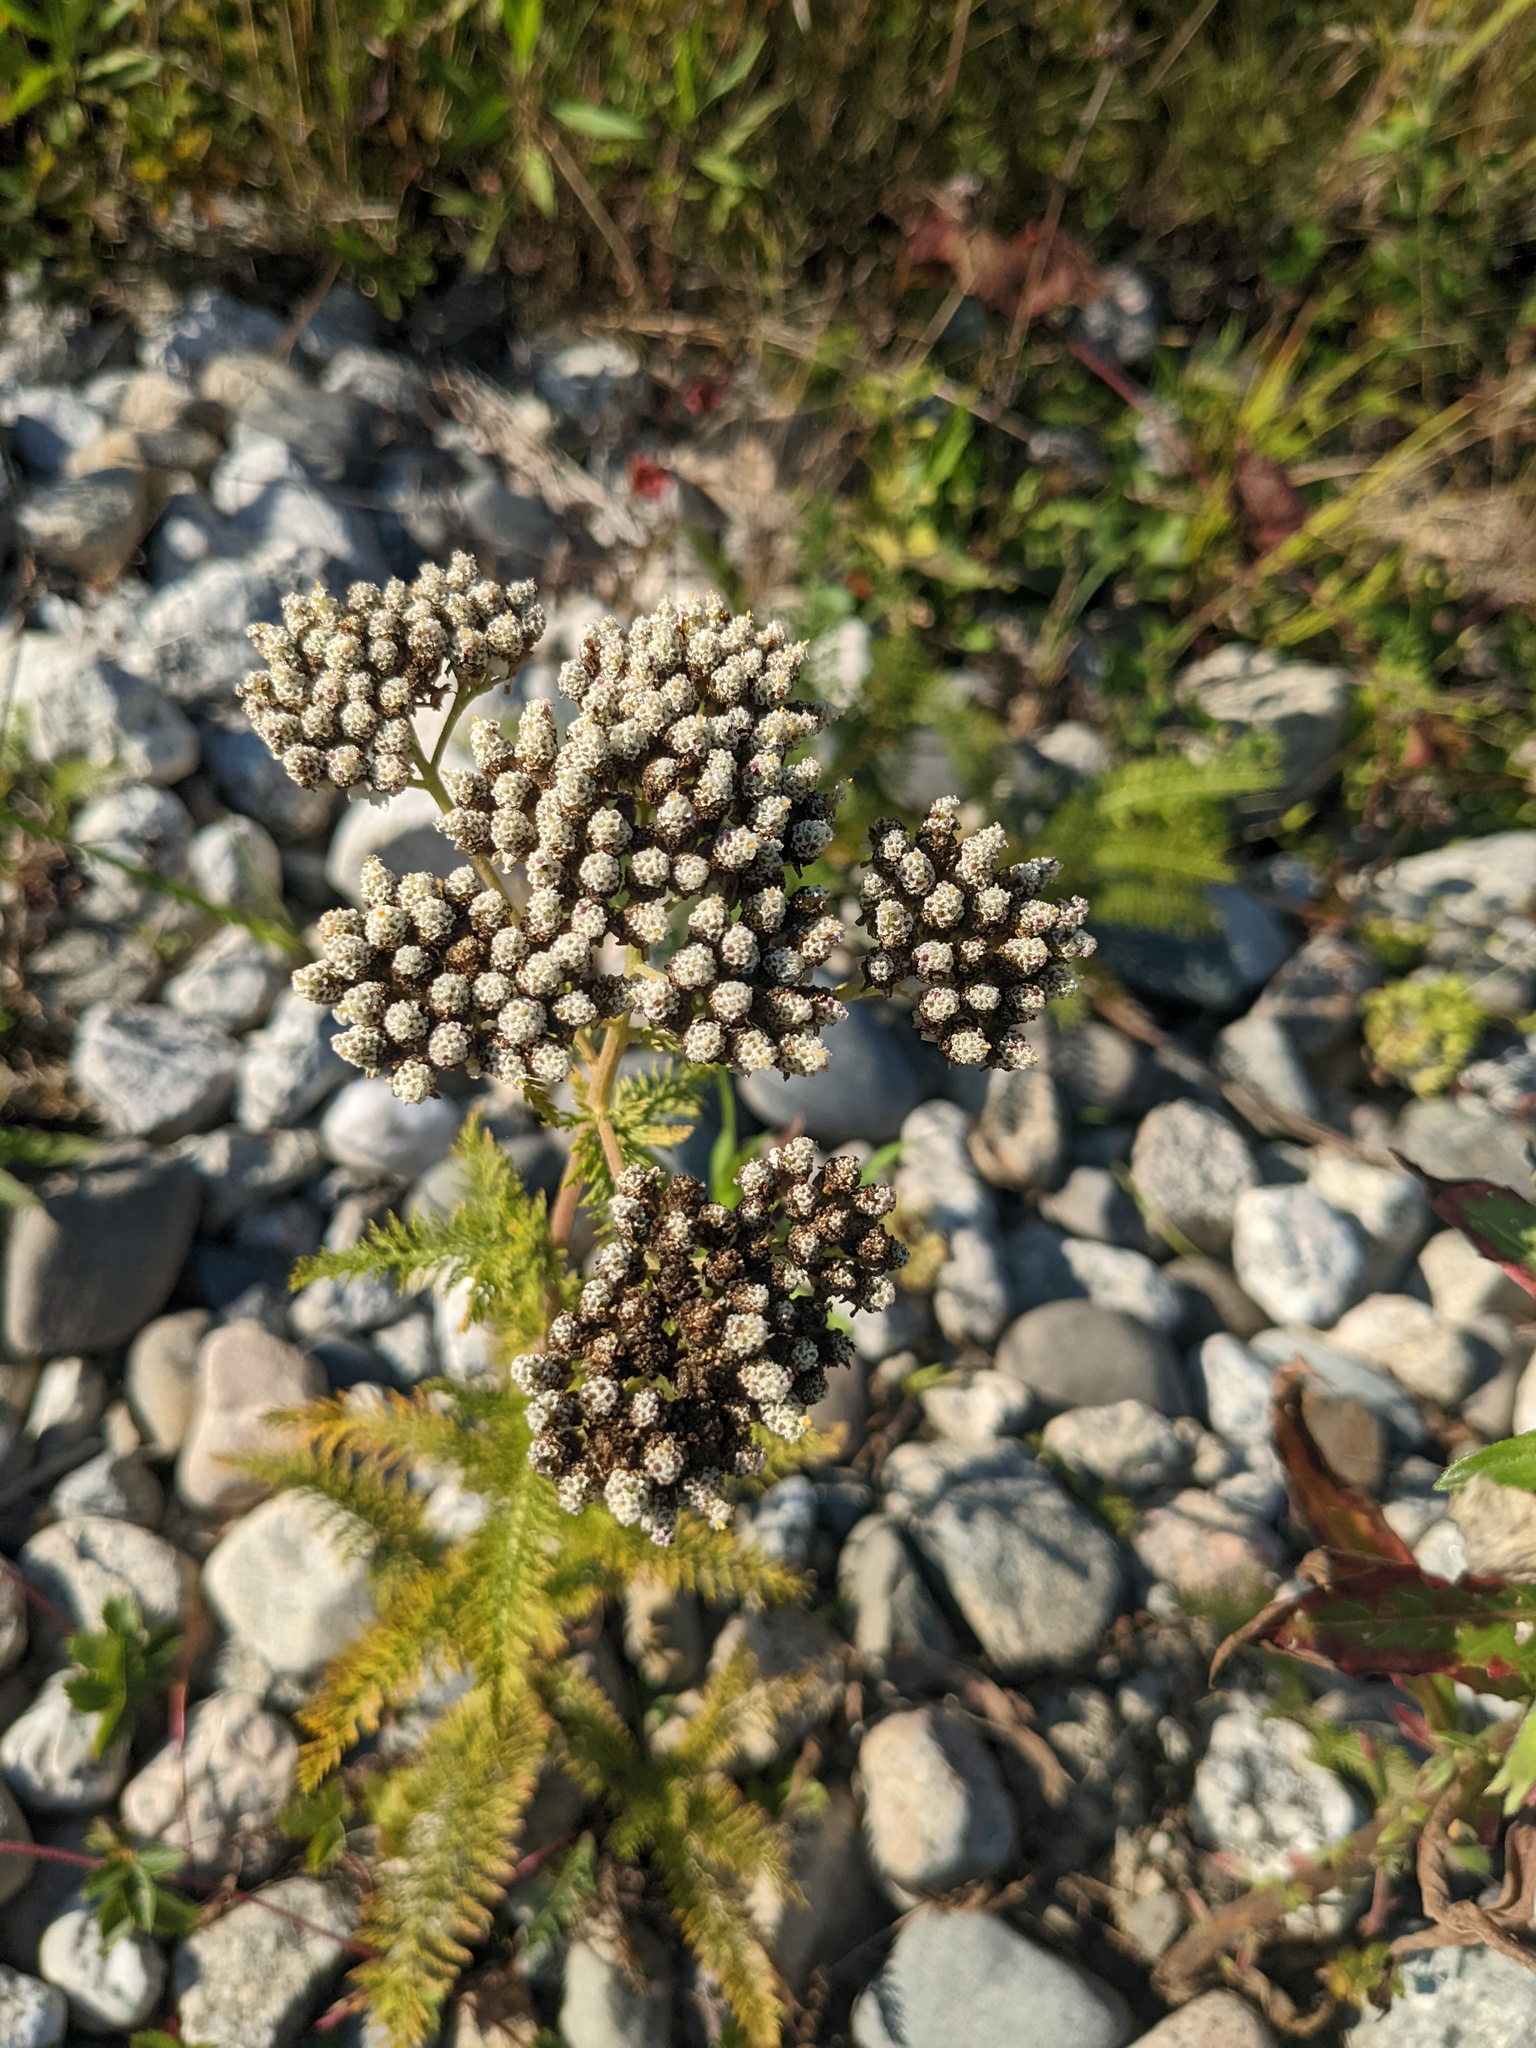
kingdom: Plantae
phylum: Tracheophyta
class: Magnoliopsida
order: Asterales
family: Asteraceae
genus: Achillea
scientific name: Achillea millefolium
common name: Yarrow
